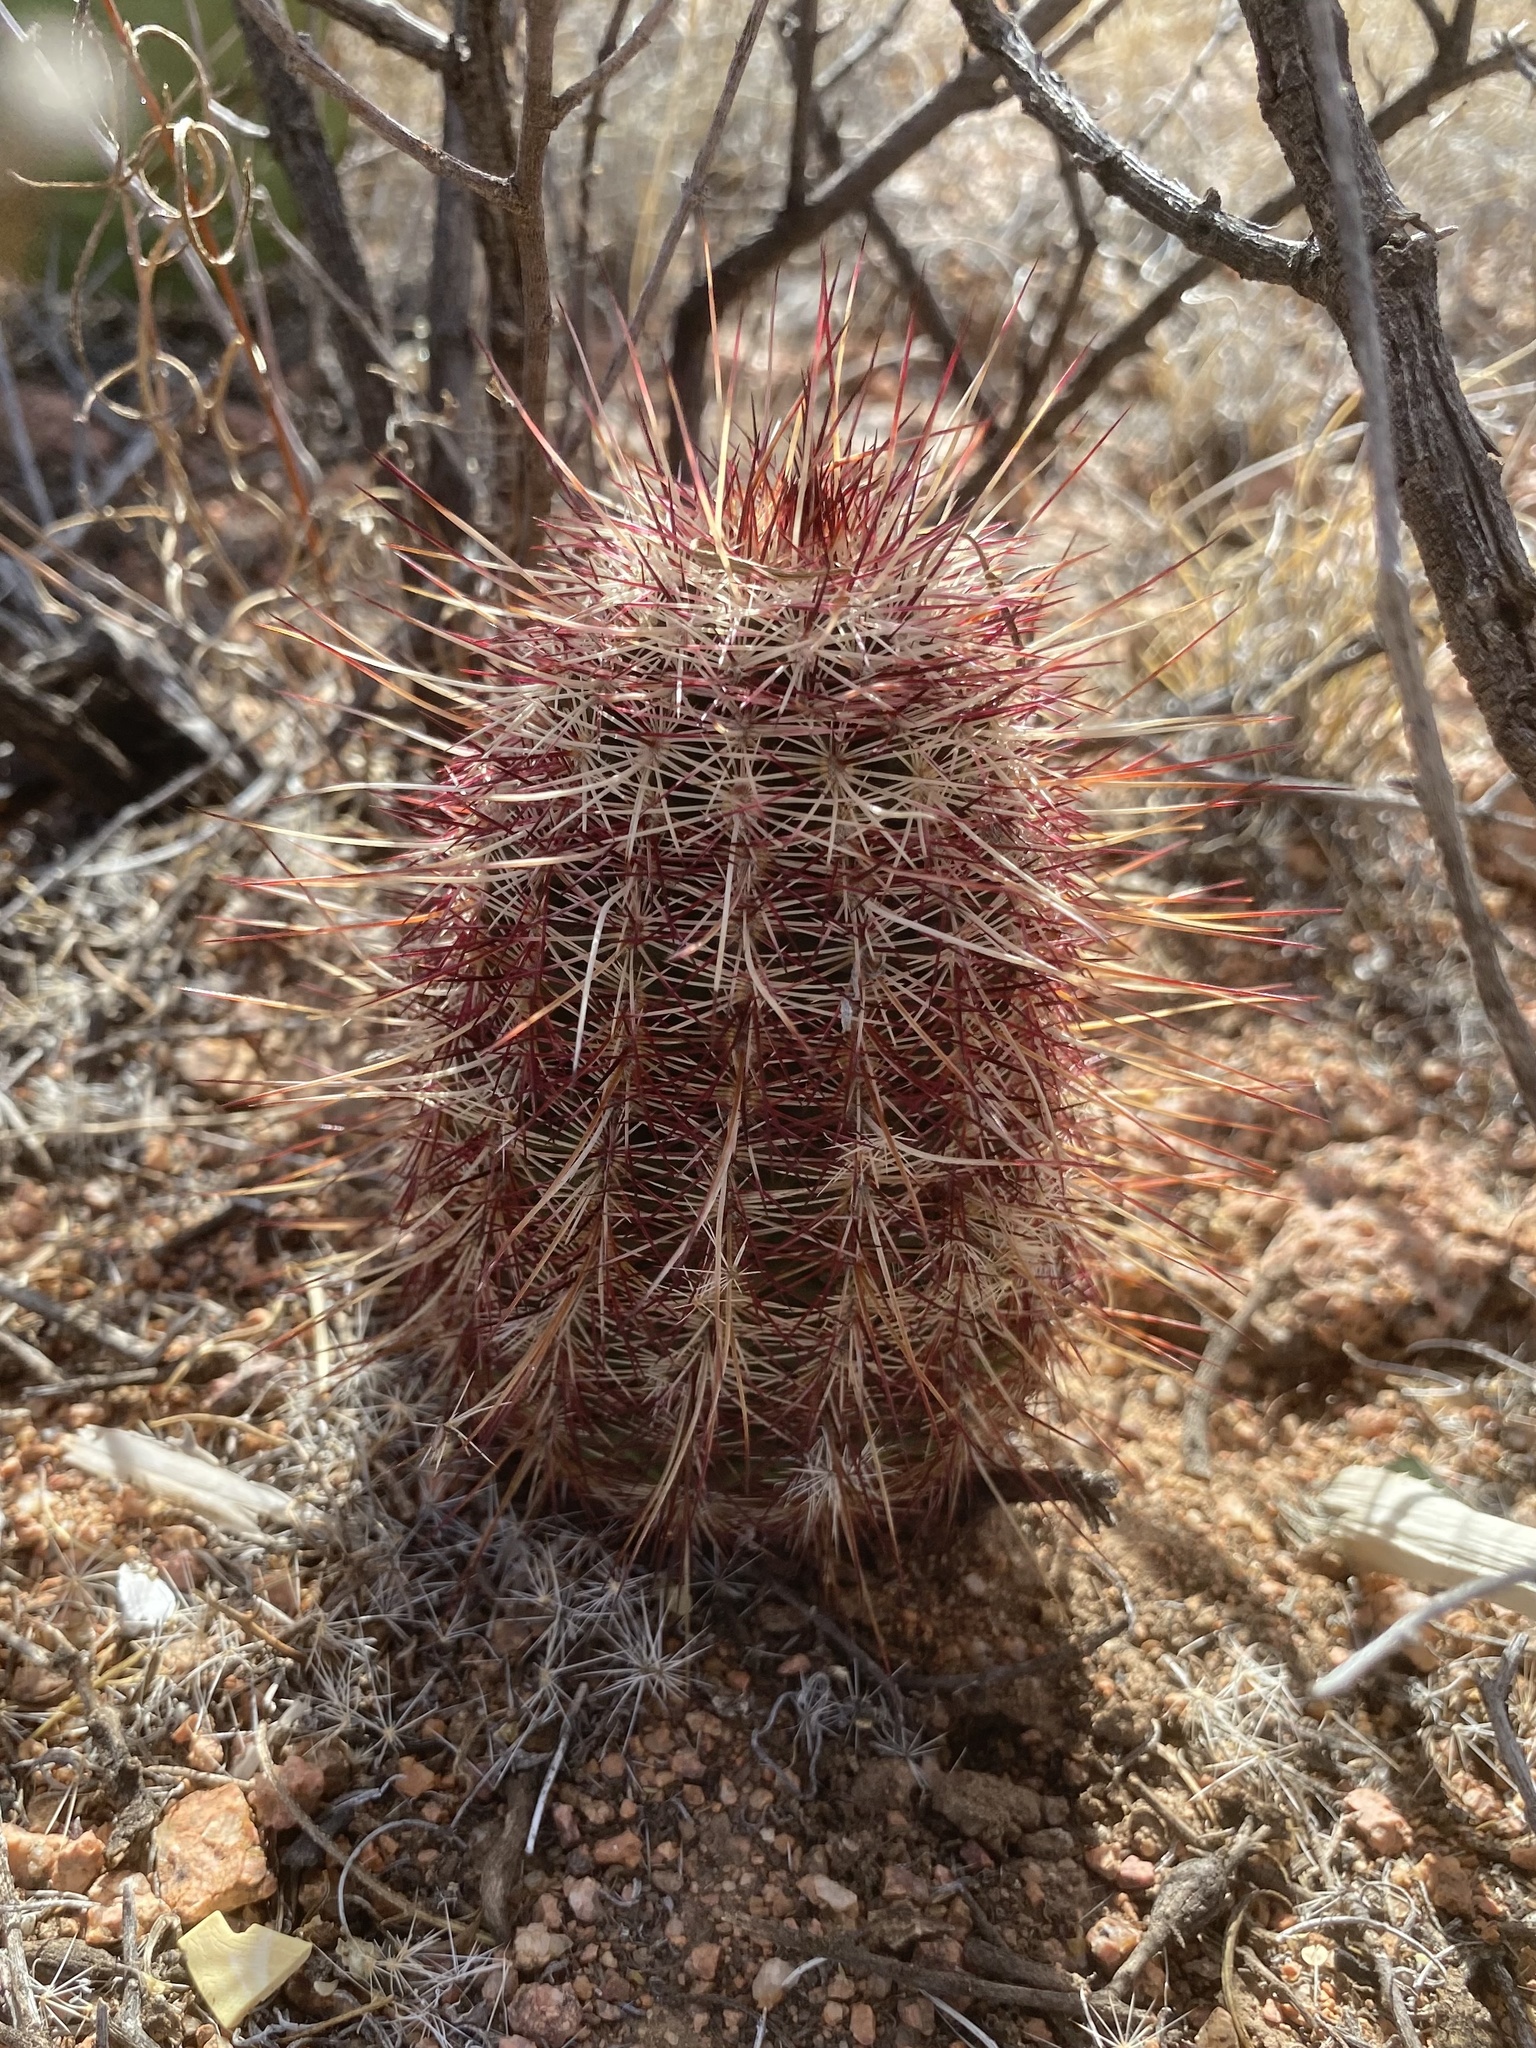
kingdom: Plantae
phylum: Tracheophyta
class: Magnoliopsida
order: Caryophyllales
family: Cactaceae
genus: Echinocereus
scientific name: Echinocereus viridiflorus
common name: Nylon hedgehog cactus
